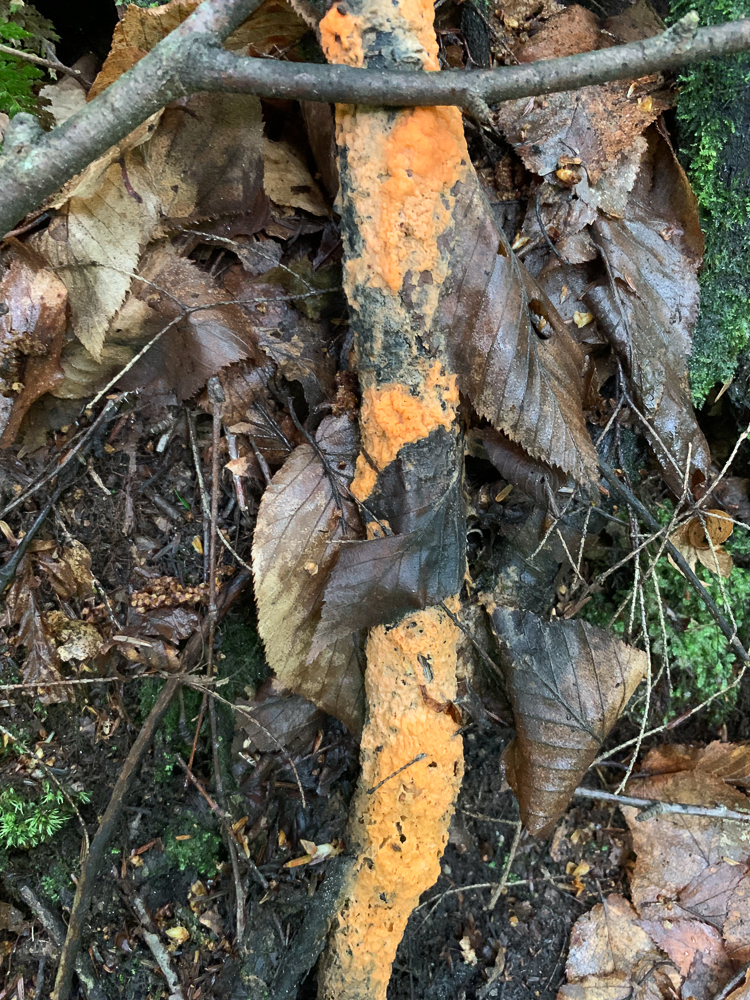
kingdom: Fungi
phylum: Ascomycota
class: Sordariomycetes
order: Hypocreales
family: Nectriaceae
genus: Fusicolla
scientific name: Fusicolla merismoides
